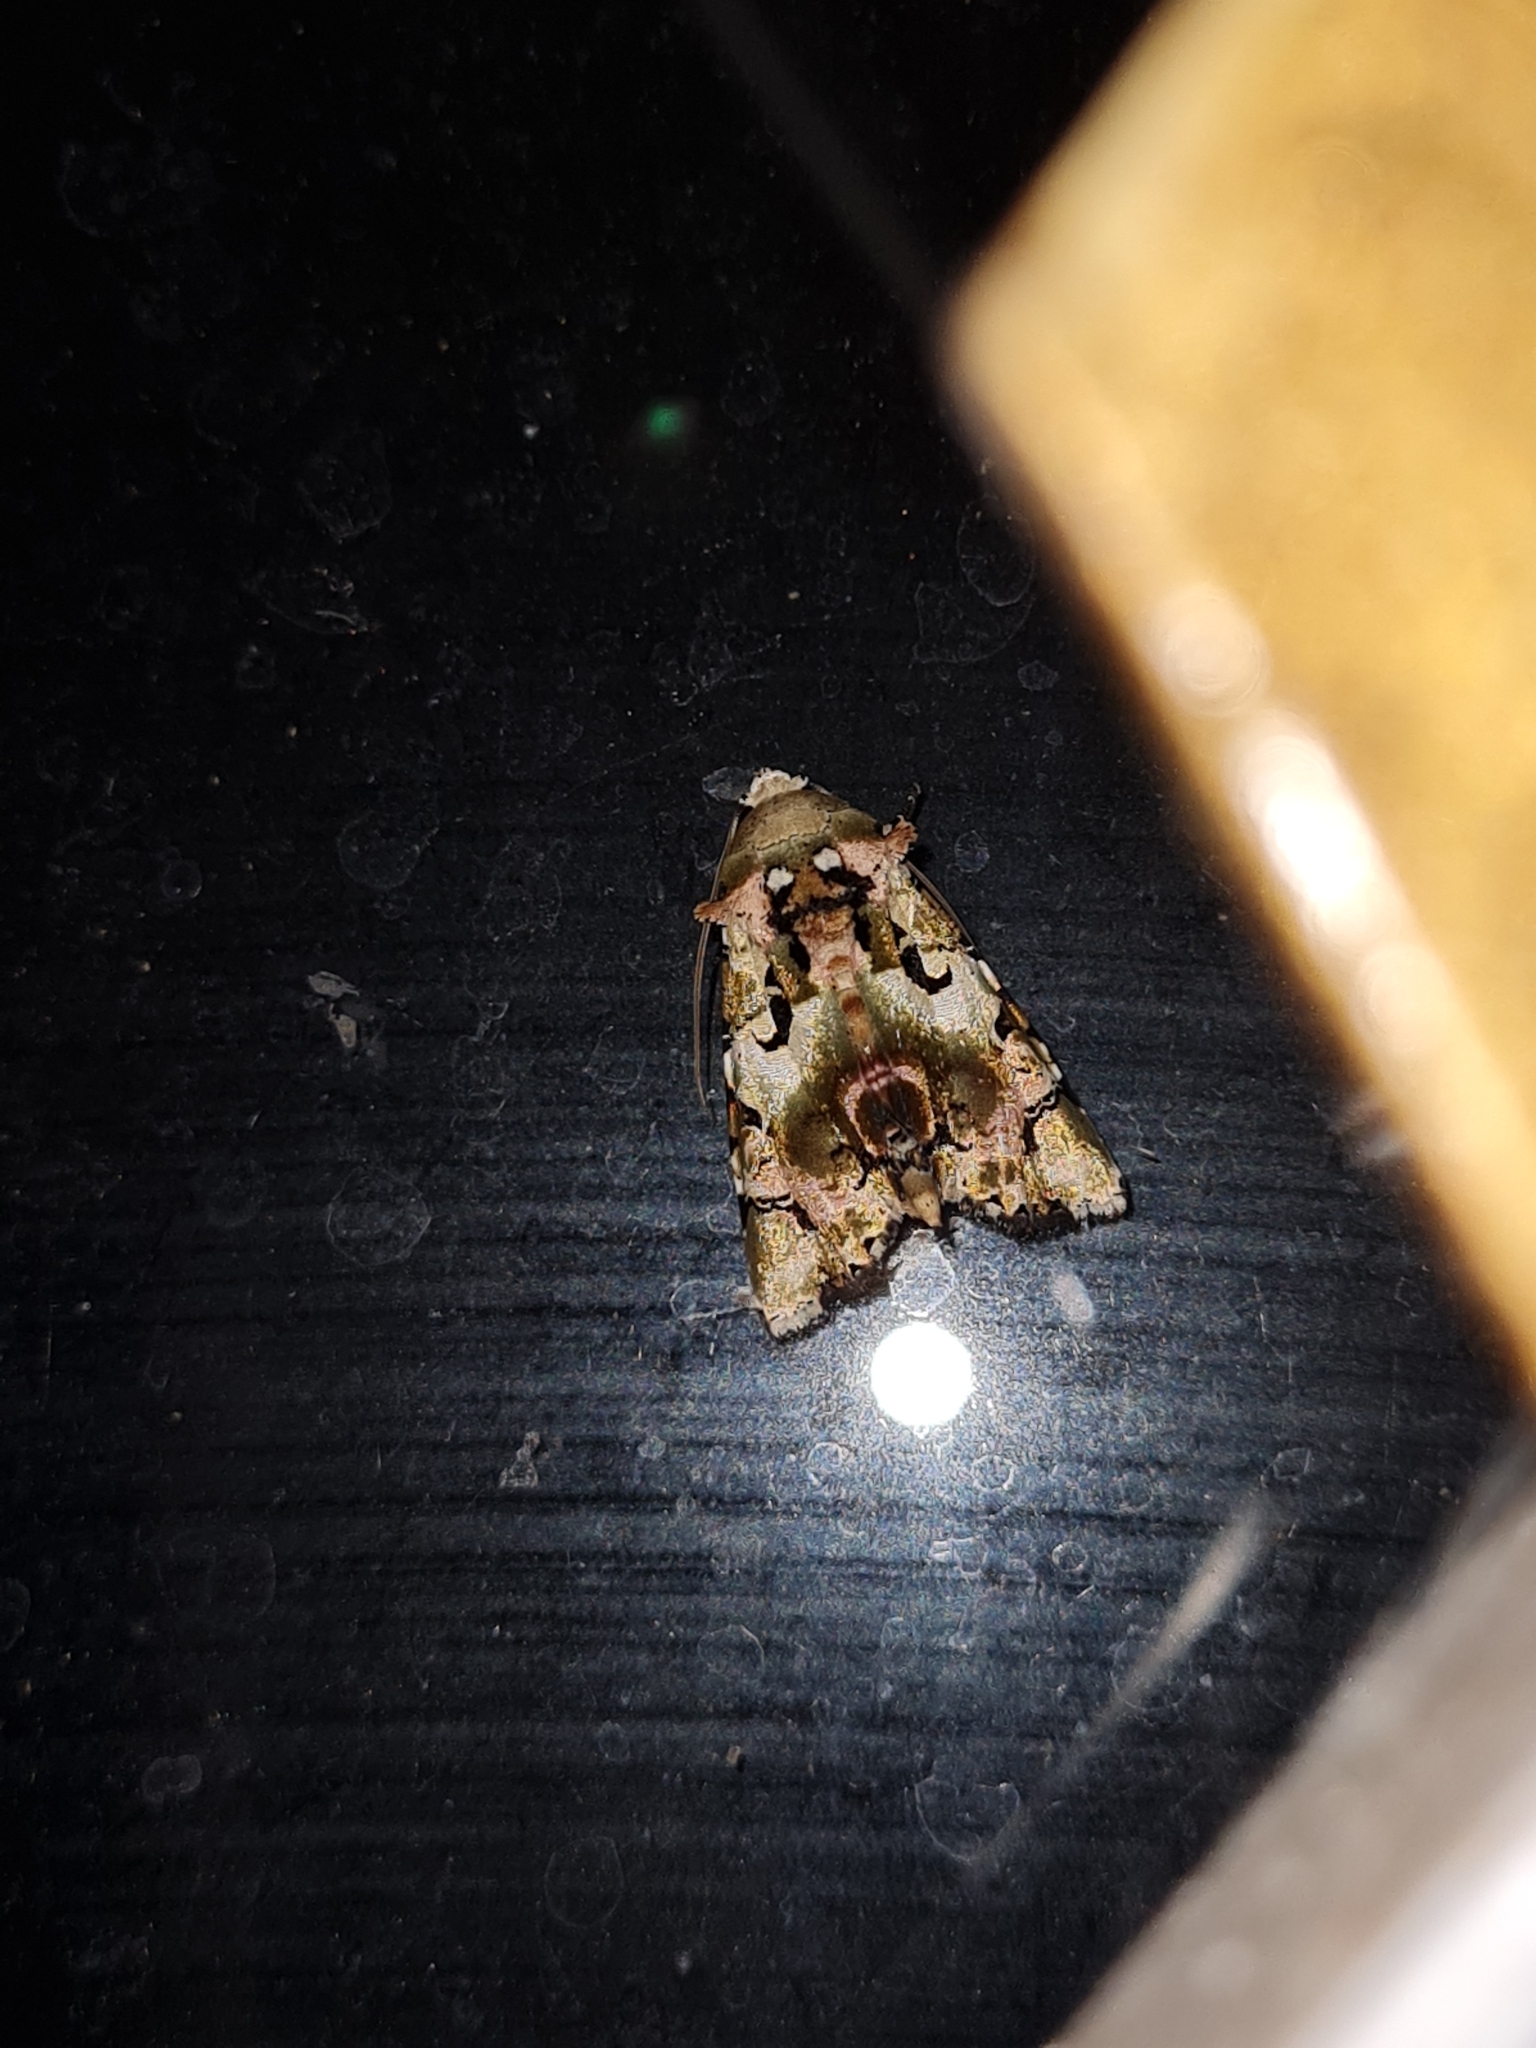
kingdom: Animalia
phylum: Arthropoda
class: Insecta
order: Lepidoptera
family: Noctuidae
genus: Heterochroma
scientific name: Heterochroma hypatia
